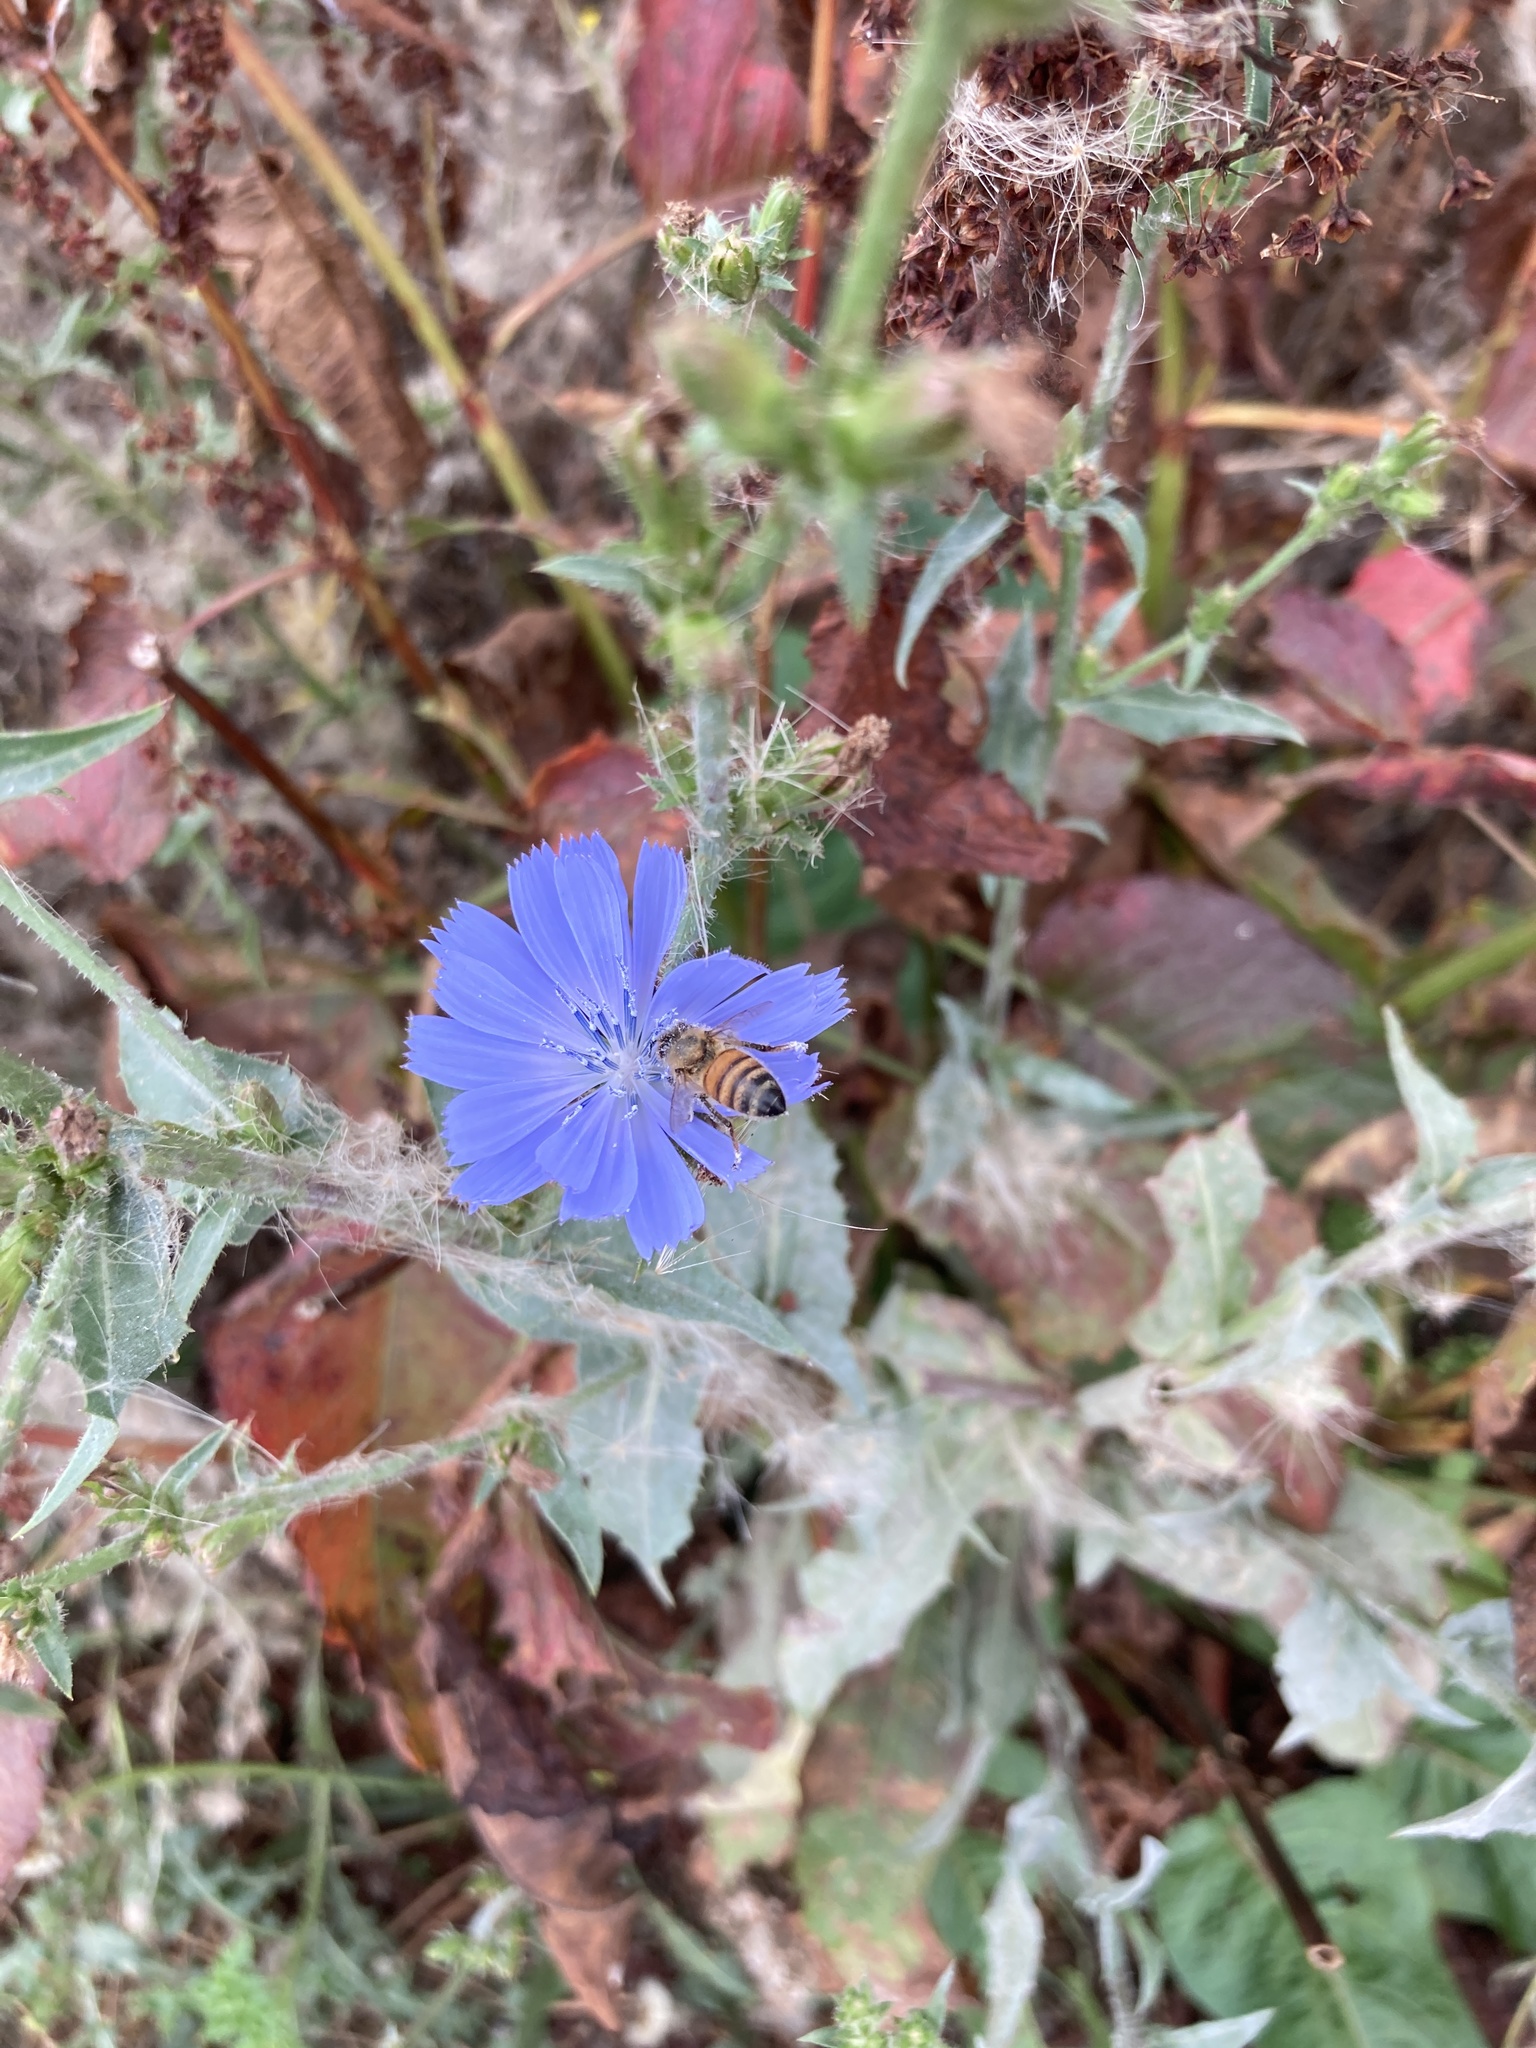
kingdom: Plantae
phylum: Tracheophyta
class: Magnoliopsida
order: Asterales
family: Asteraceae
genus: Cichorium
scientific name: Cichorium intybus
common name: Chicory
